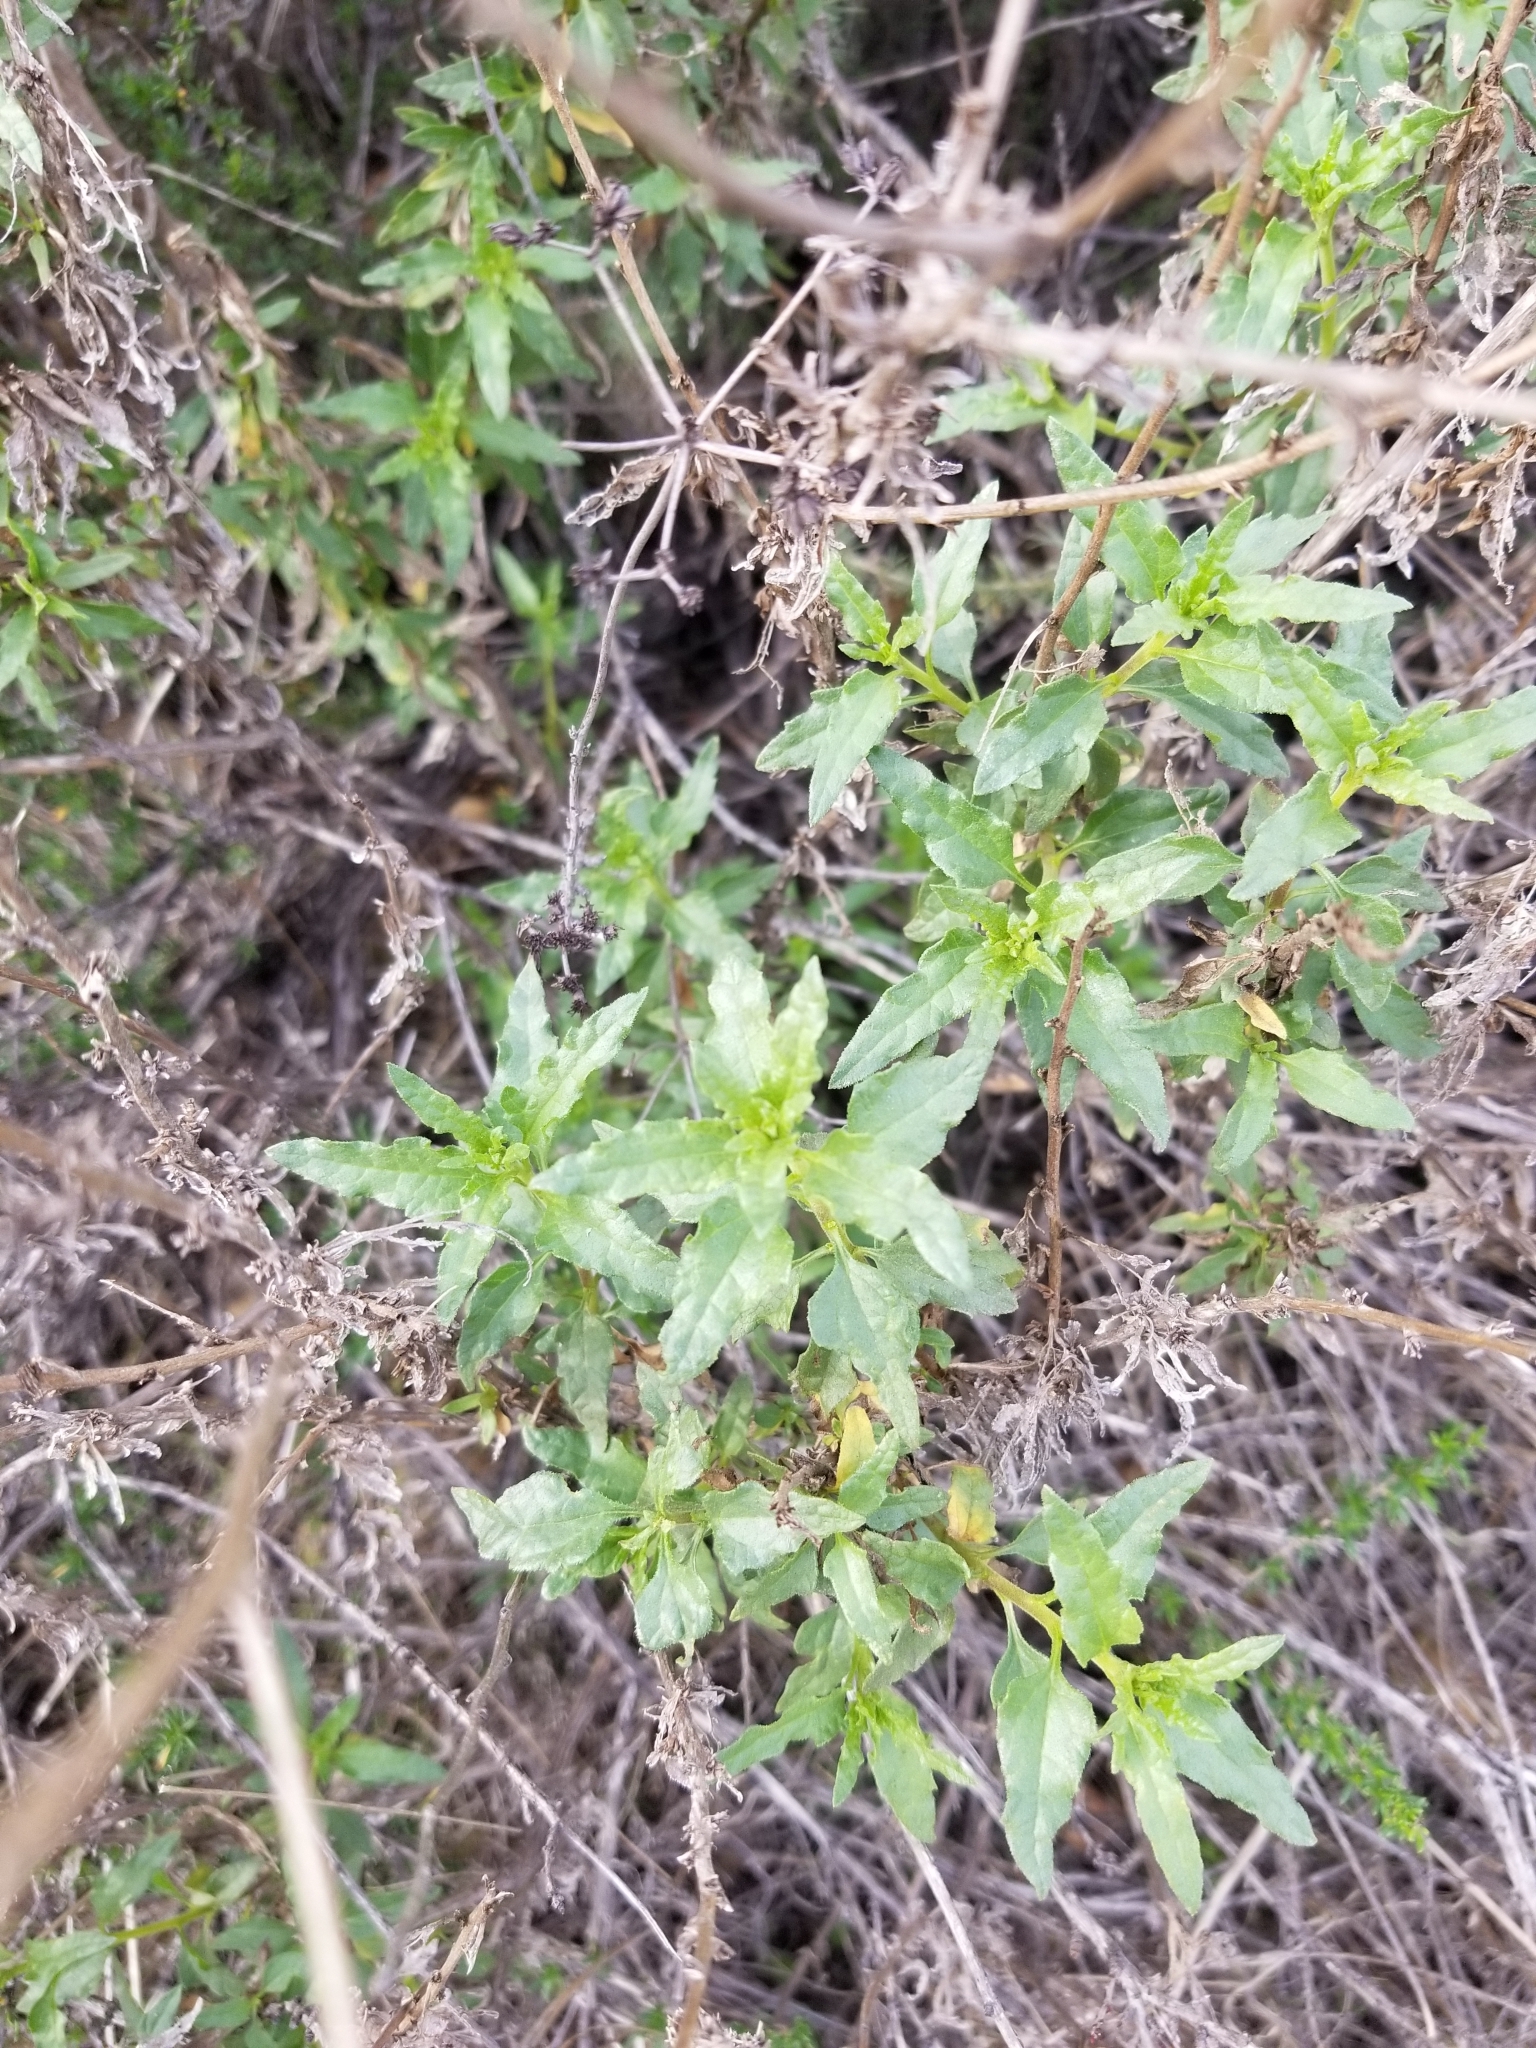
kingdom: Plantae
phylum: Tracheophyta
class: Magnoliopsida
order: Asterales
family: Asteraceae
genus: Bahiopsis
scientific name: Bahiopsis laciniata
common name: San diego county viguiera
